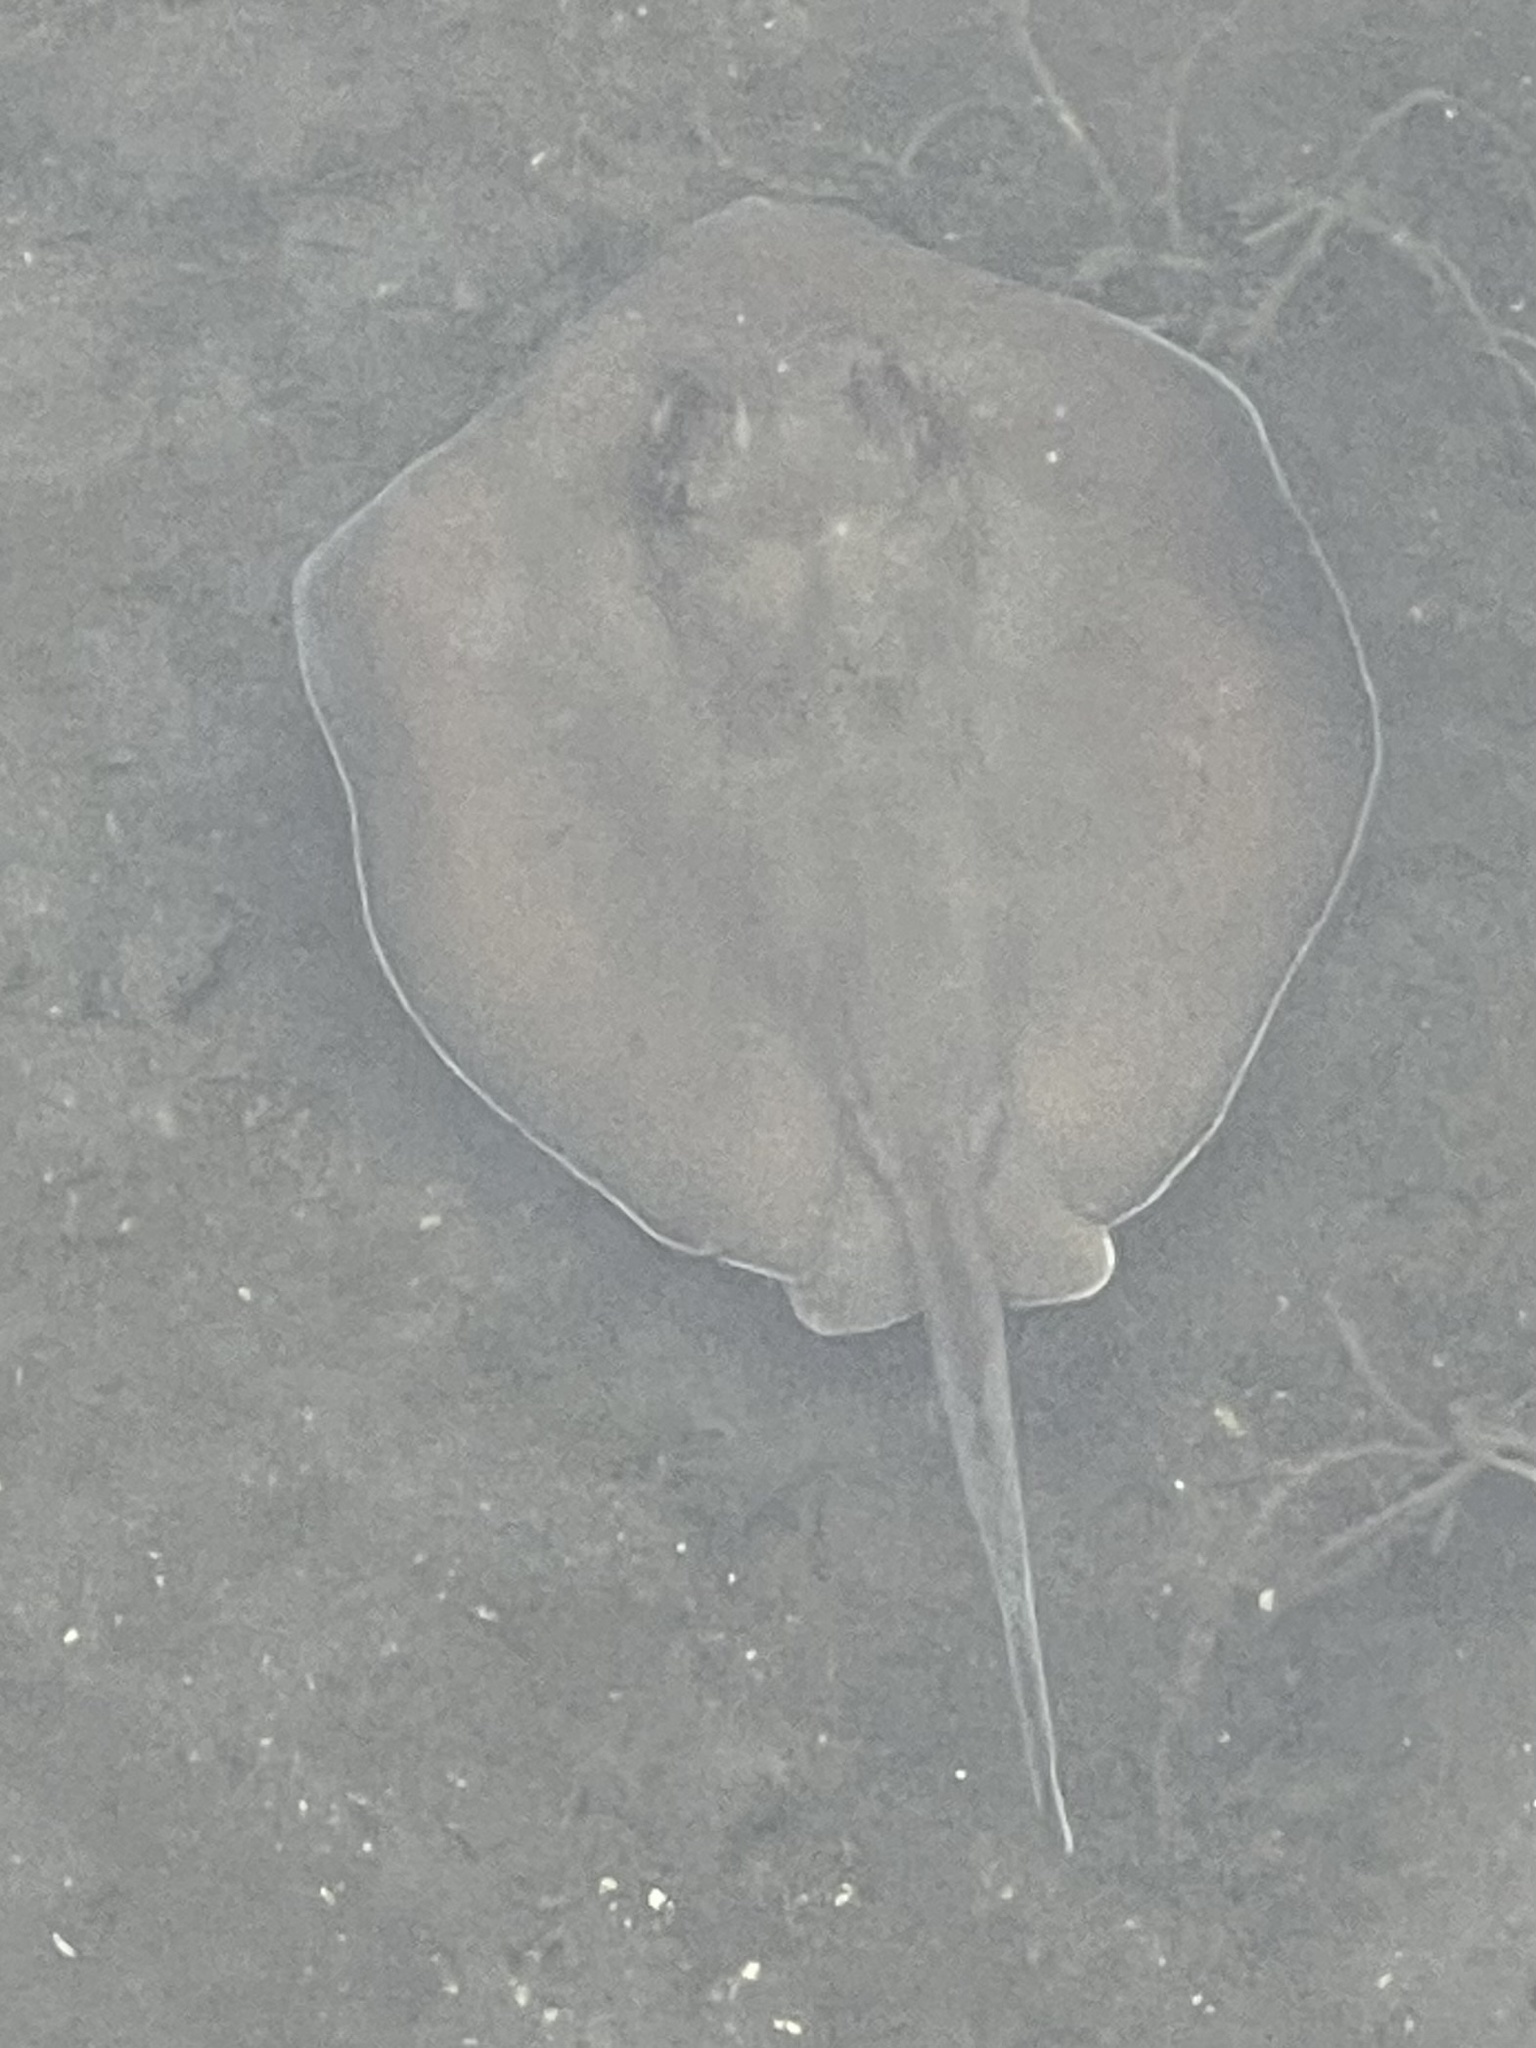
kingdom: Animalia
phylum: Chordata
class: Elasmobranchii
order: Myliobatiformes
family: Dasyatidae
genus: Hypanus
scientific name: Hypanus americanus
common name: Southern stingray
